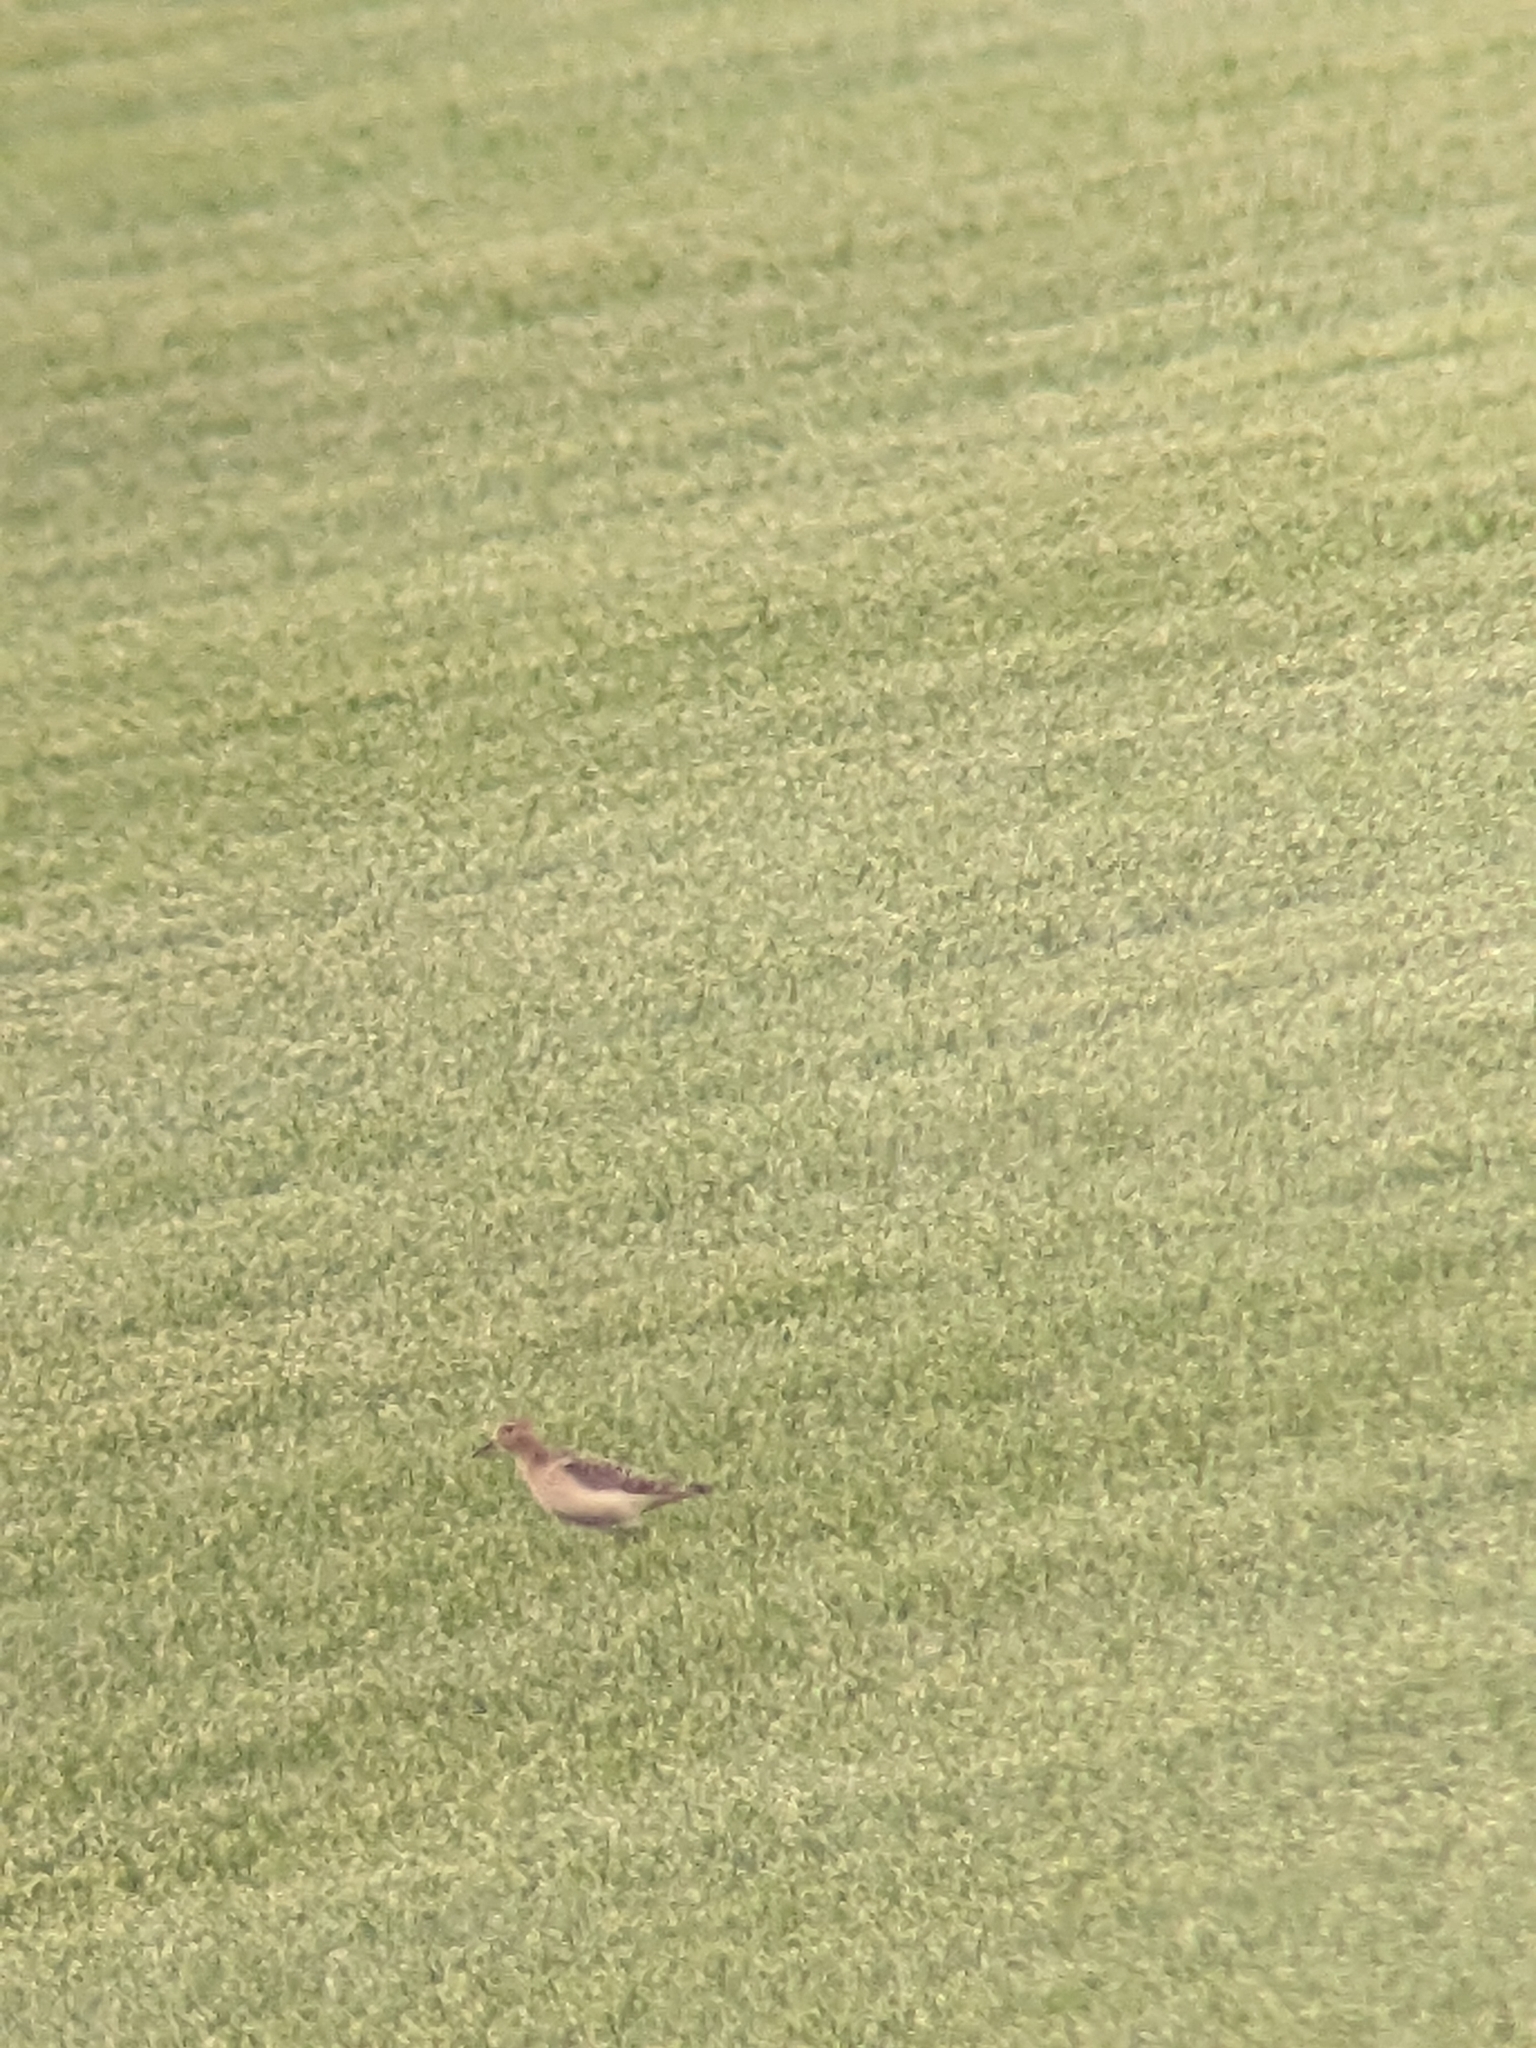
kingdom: Animalia
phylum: Chordata
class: Aves
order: Charadriiformes
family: Scolopacidae
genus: Calidris
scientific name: Calidris subruficollis
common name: Buff-breasted sandpiper
